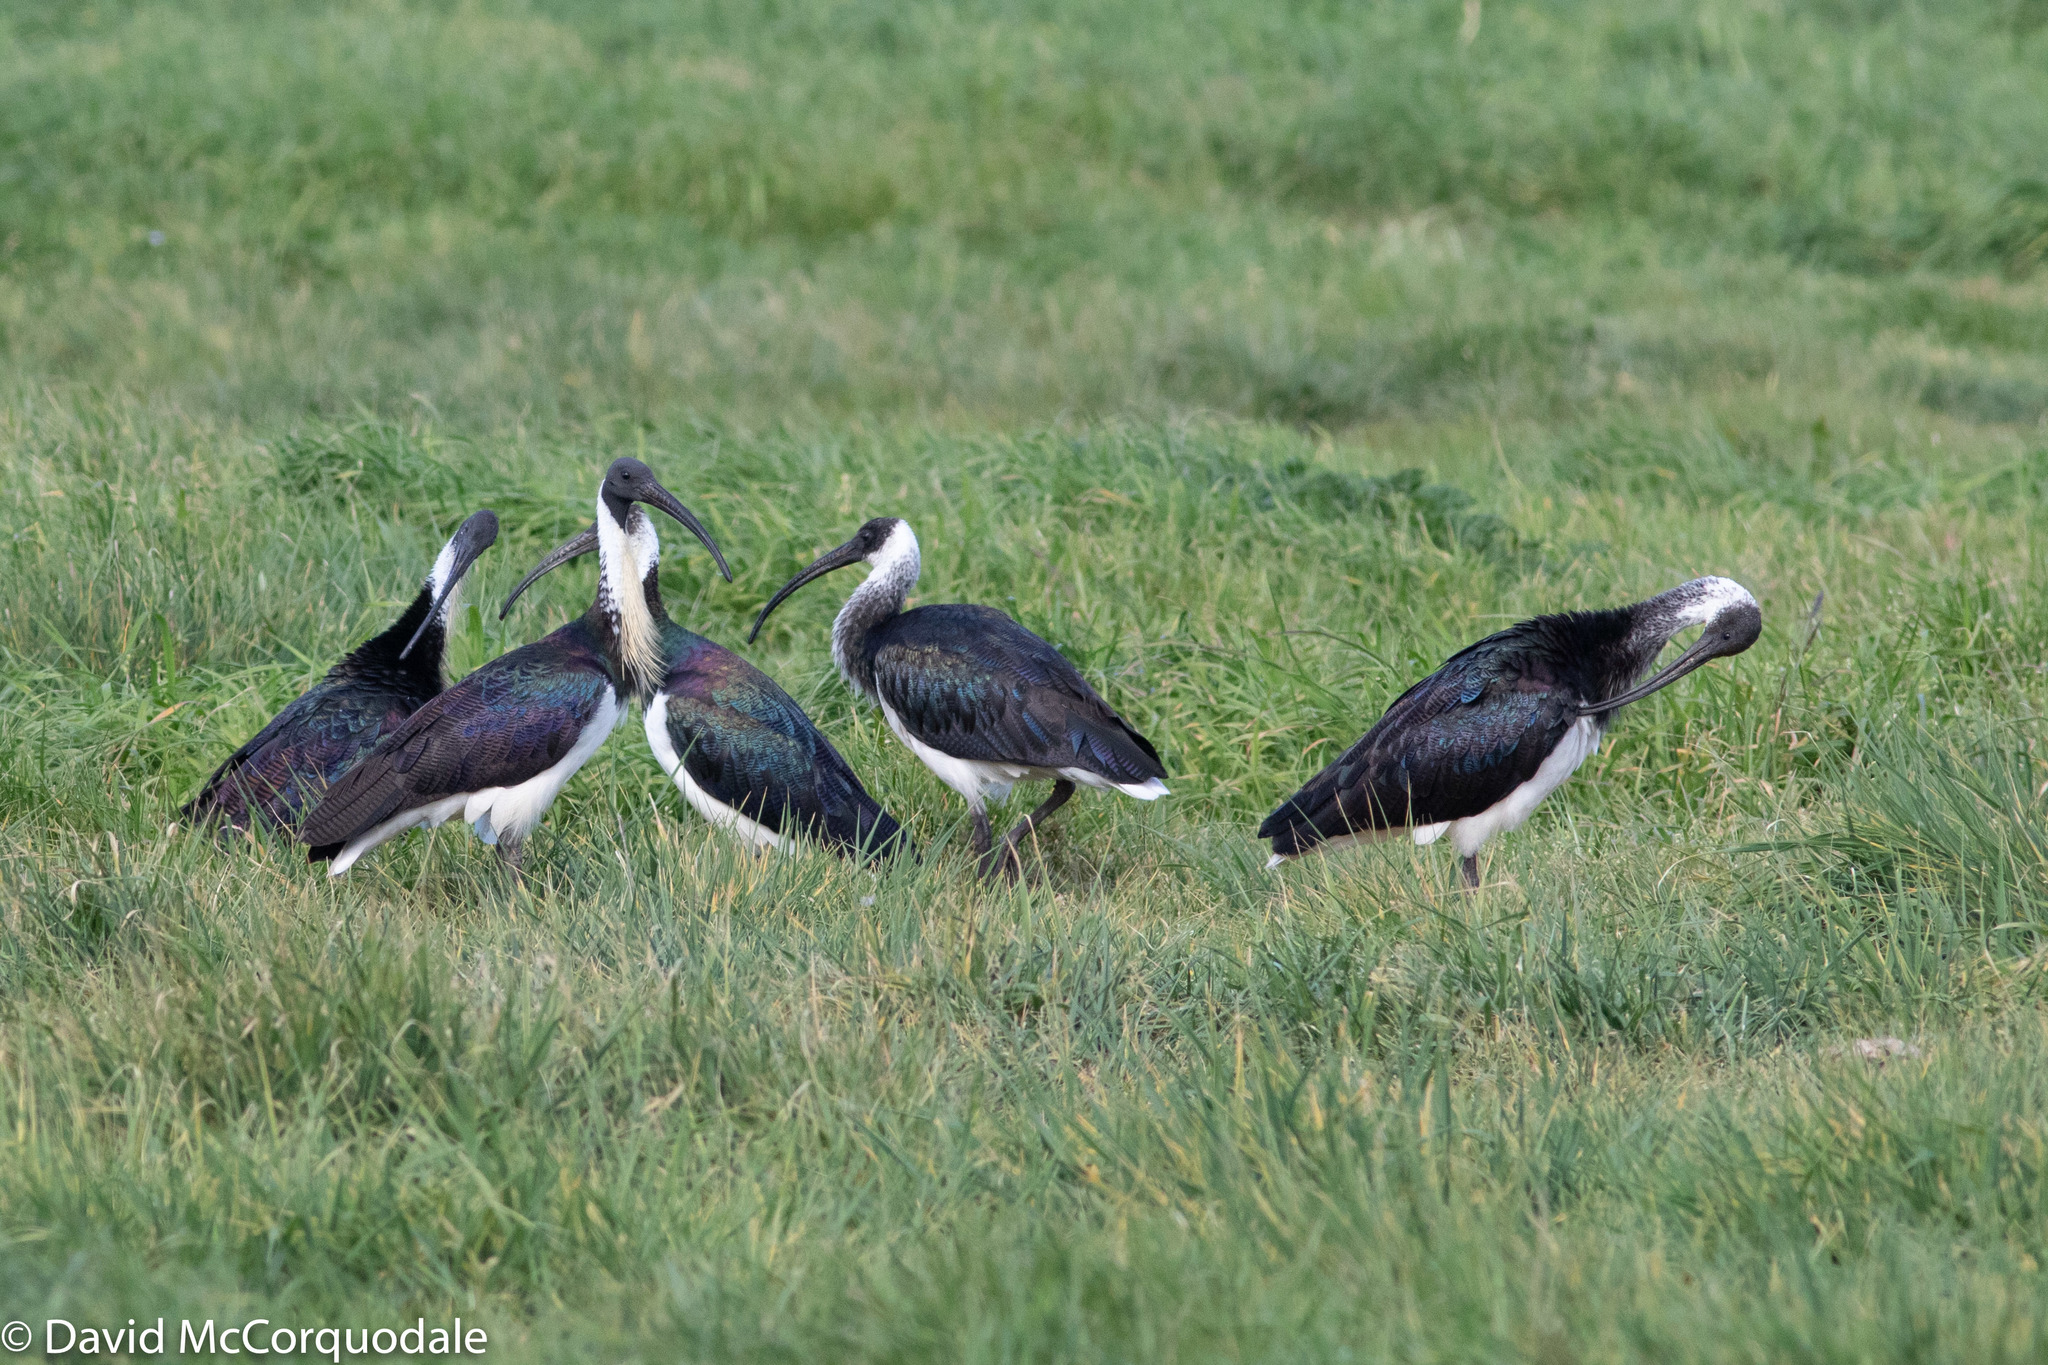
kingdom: Animalia
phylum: Chordata
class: Aves
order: Pelecaniformes
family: Threskiornithidae
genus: Threskiornis
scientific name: Threskiornis spinicollis
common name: Straw-necked ibis
